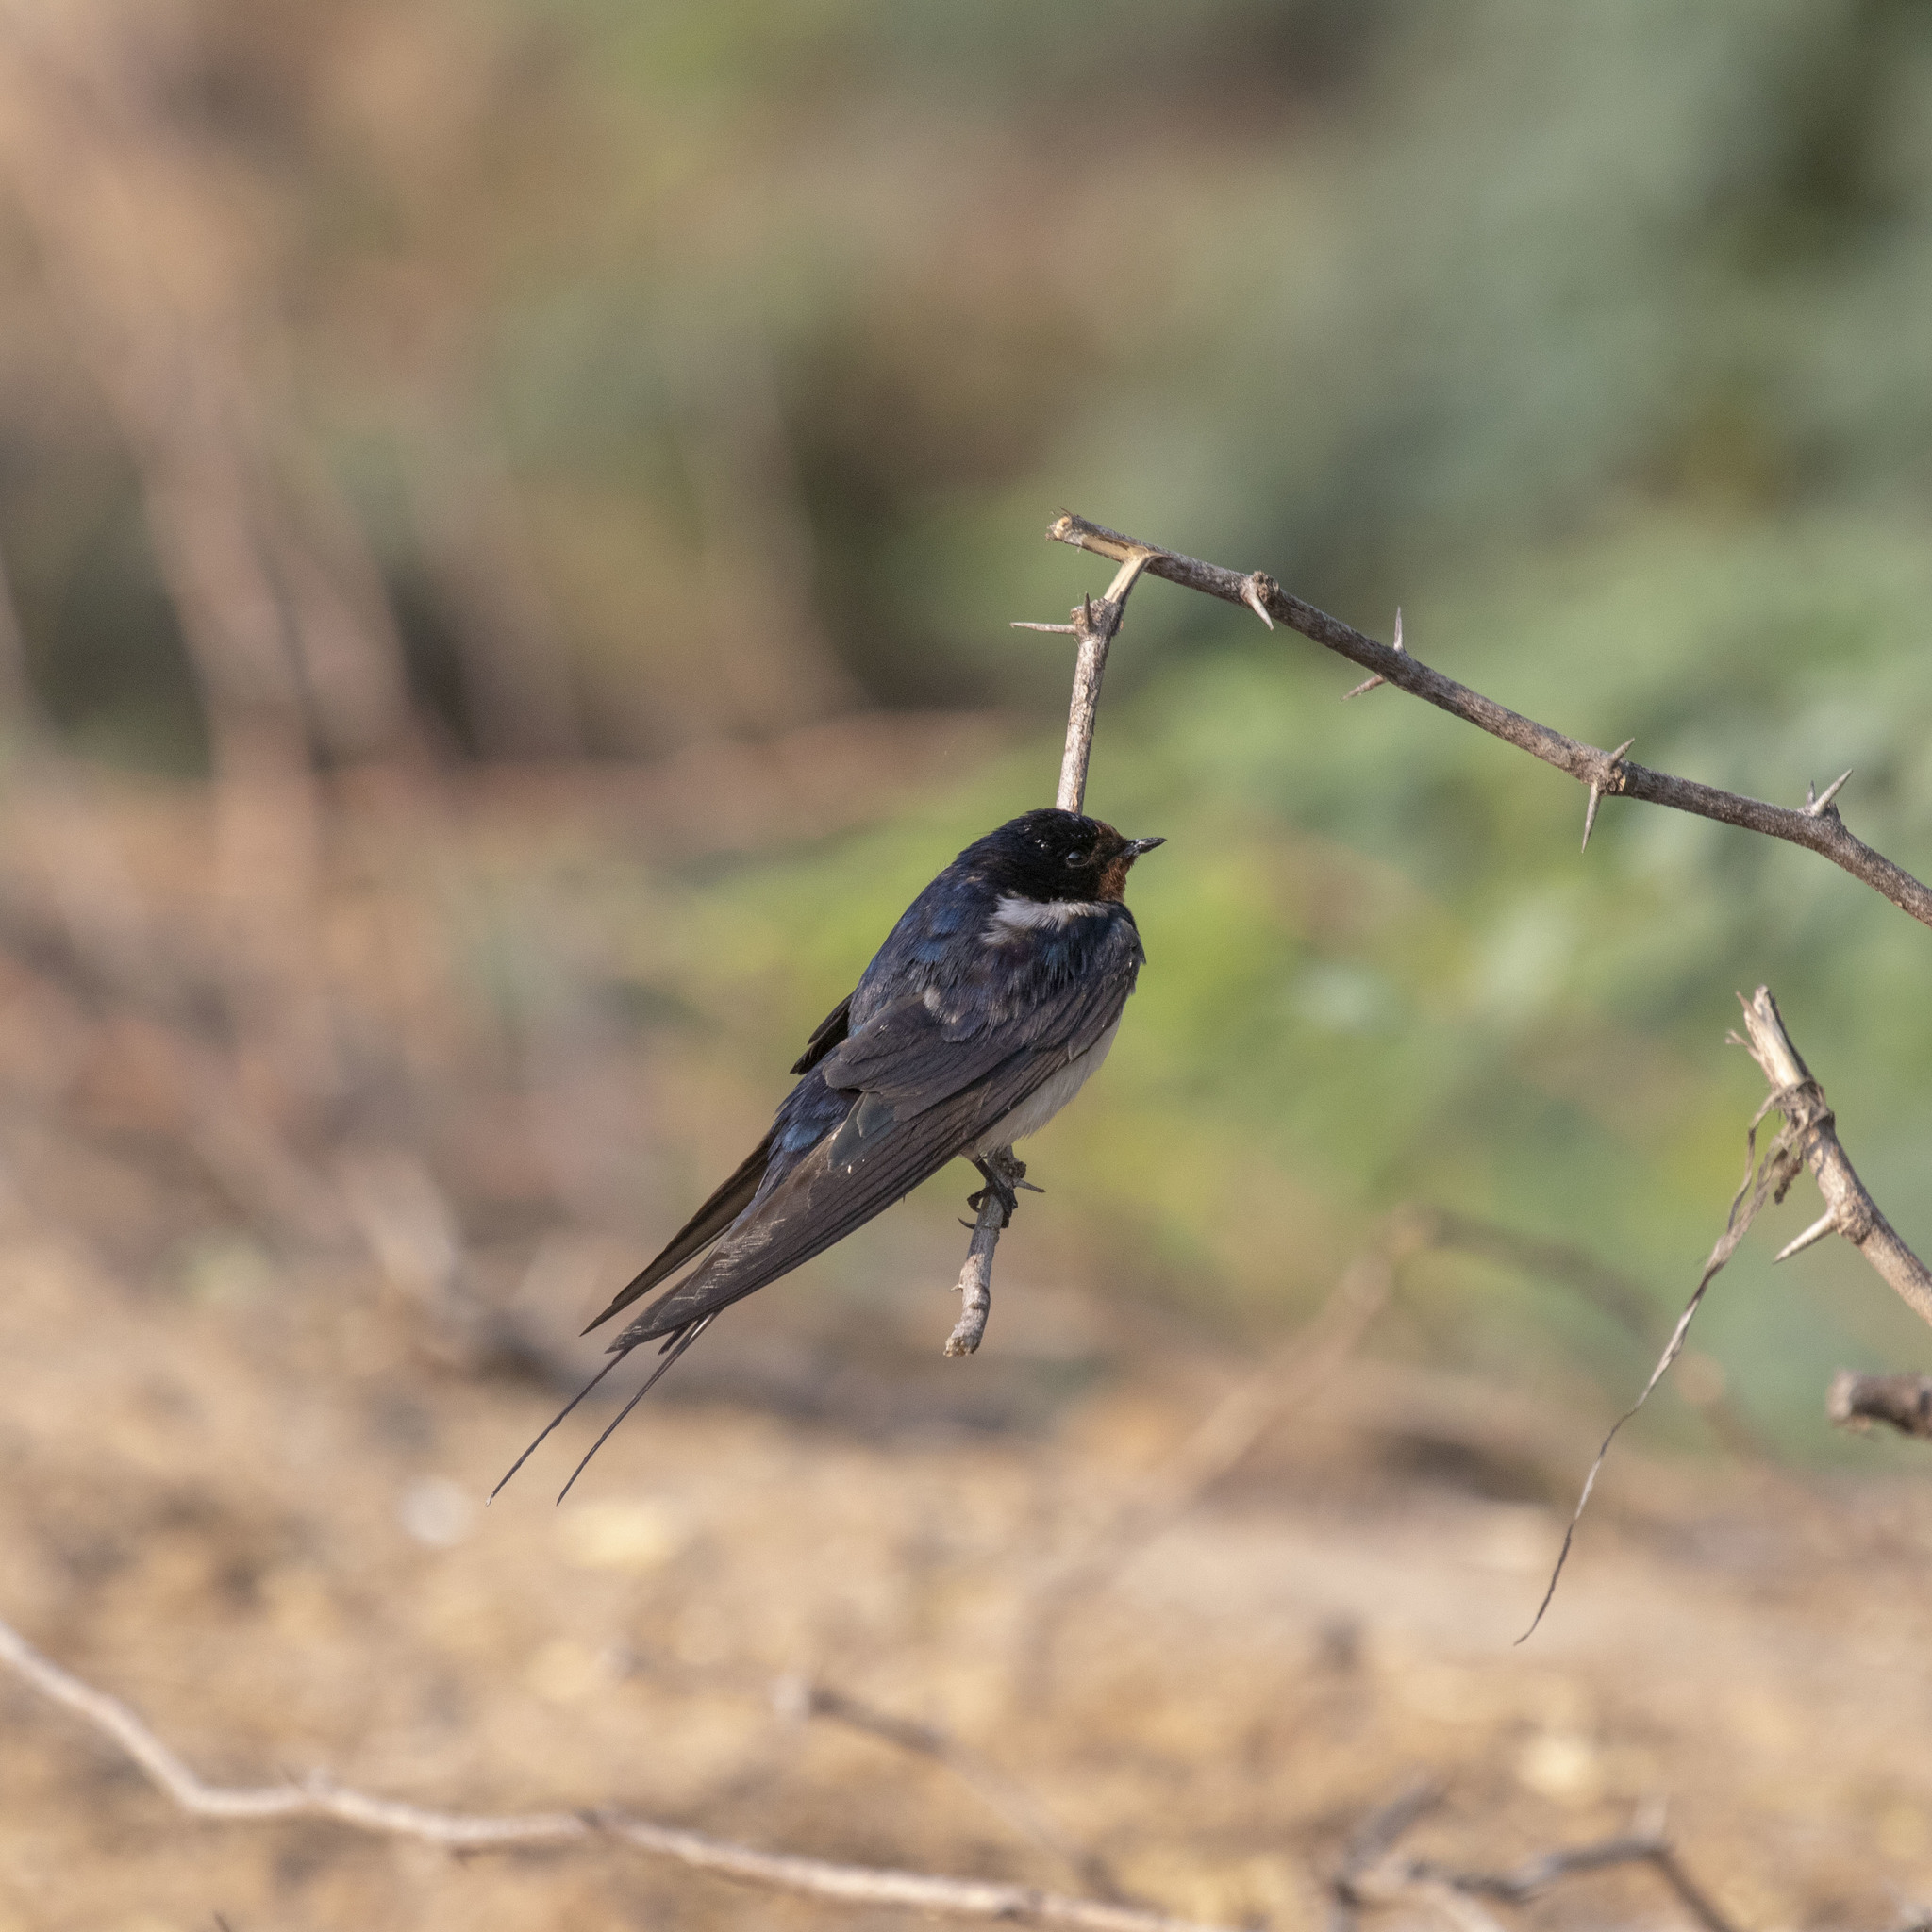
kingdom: Animalia
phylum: Chordata
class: Aves
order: Passeriformes
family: Hirundinidae
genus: Hirundo
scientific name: Hirundo rustica
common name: Barn swallow
